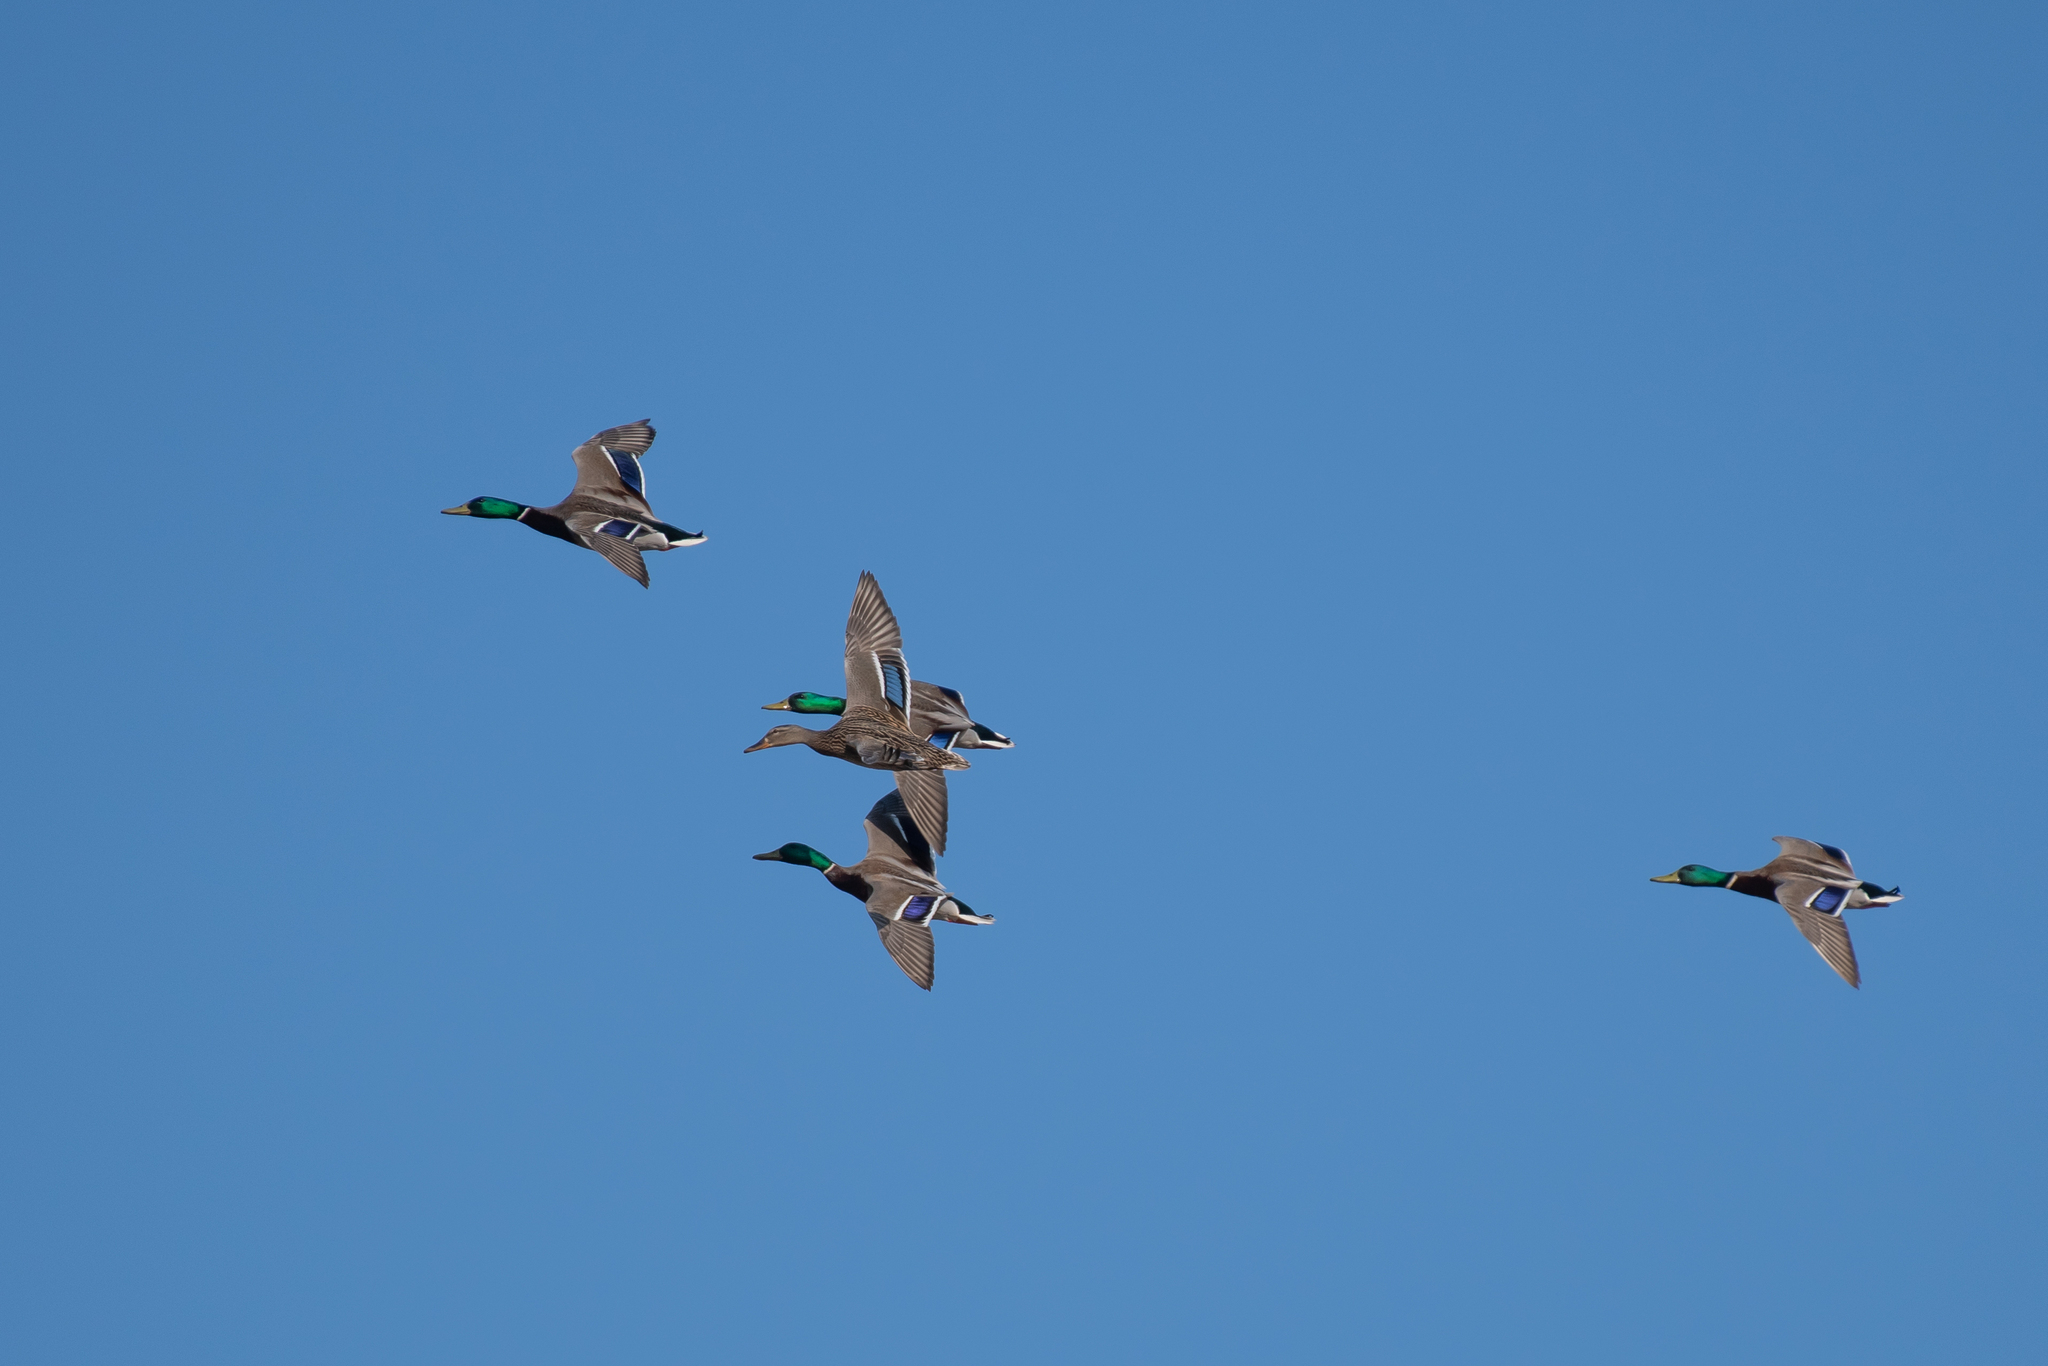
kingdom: Animalia
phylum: Chordata
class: Aves
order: Anseriformes
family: Anatidae
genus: Anas
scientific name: Anas platyrhynchos
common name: Mallard
